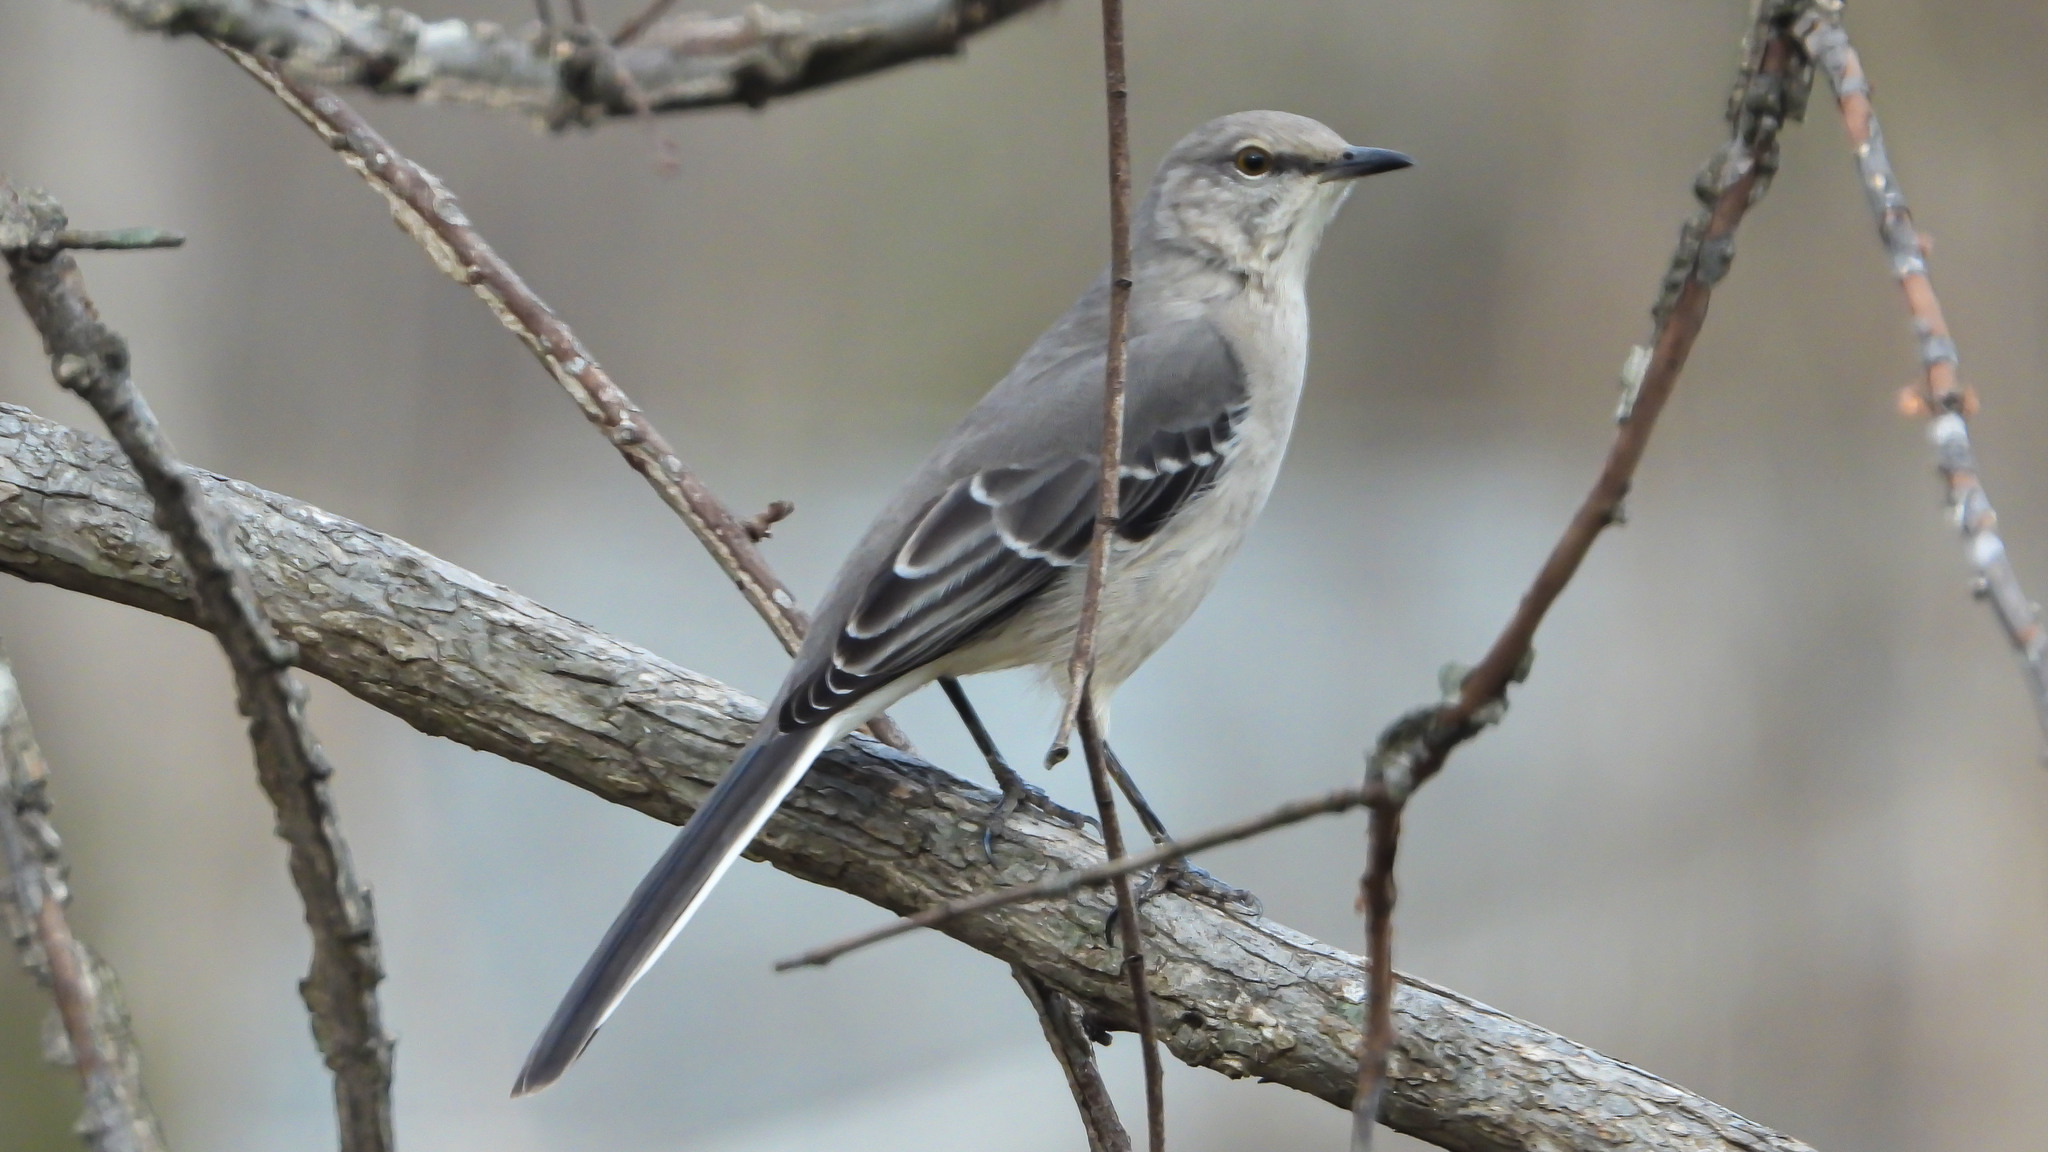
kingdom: Animalia
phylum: Chordata
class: Aves
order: Passeriformes
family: Mimidae
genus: Mimus
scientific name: Mimus polyglottos
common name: Northern mockingbird
